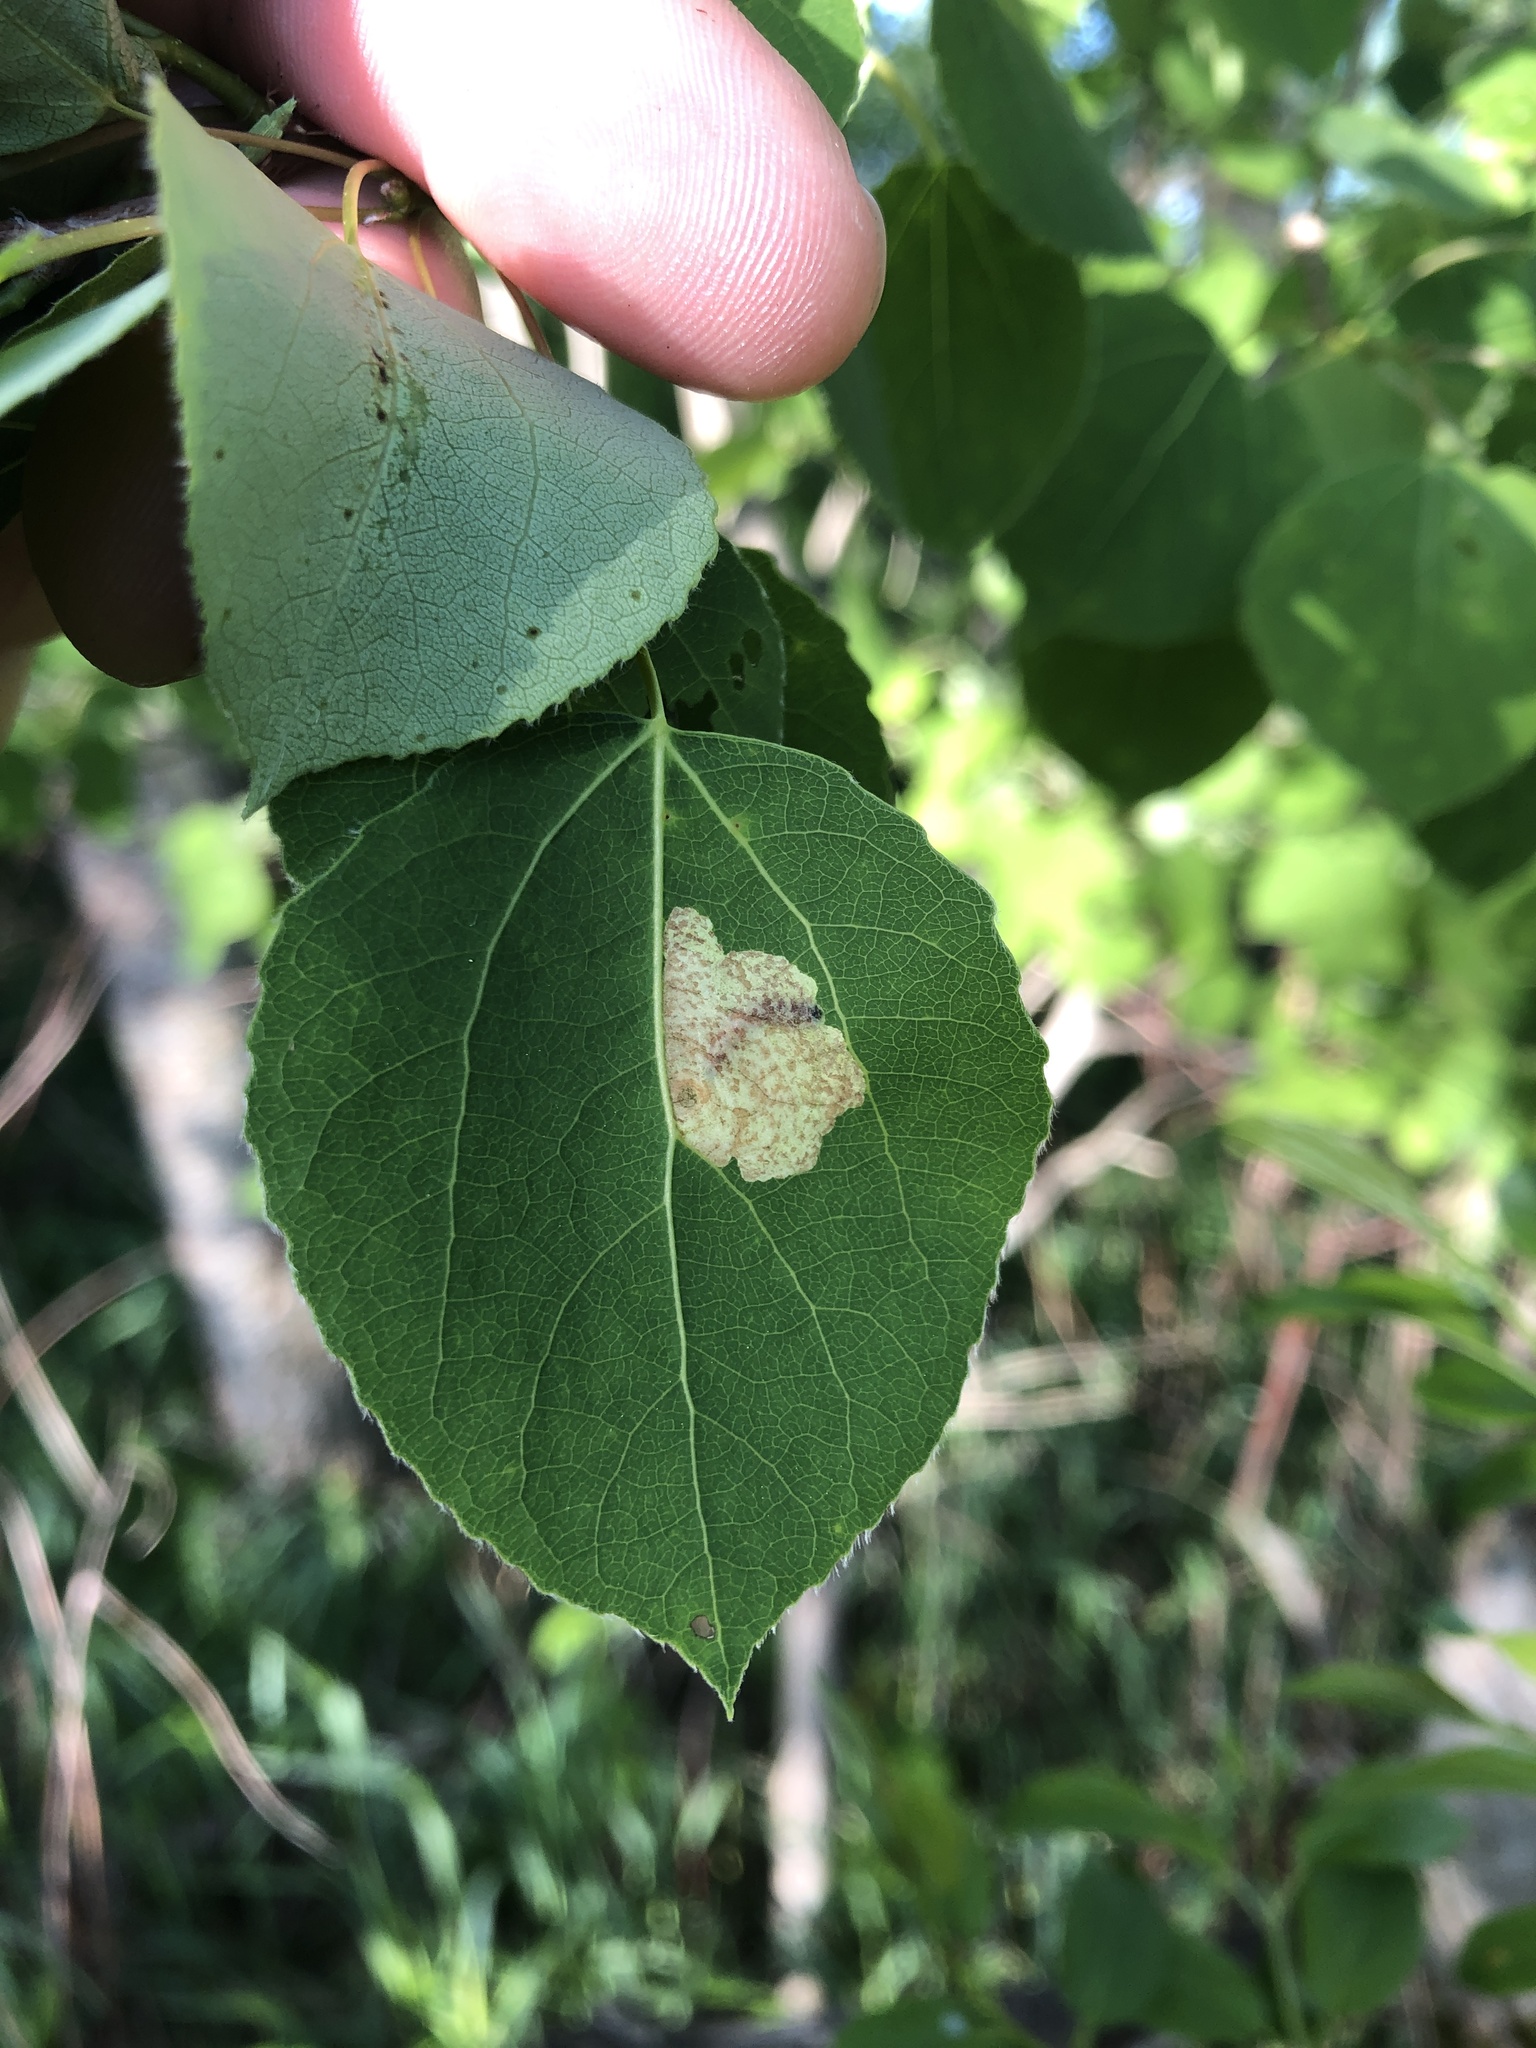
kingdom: Animalia
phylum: Arthropoda
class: Insecta
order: Lepidoptera
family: Coleophoridae
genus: Coleophora
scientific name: Coleophora pruniella
